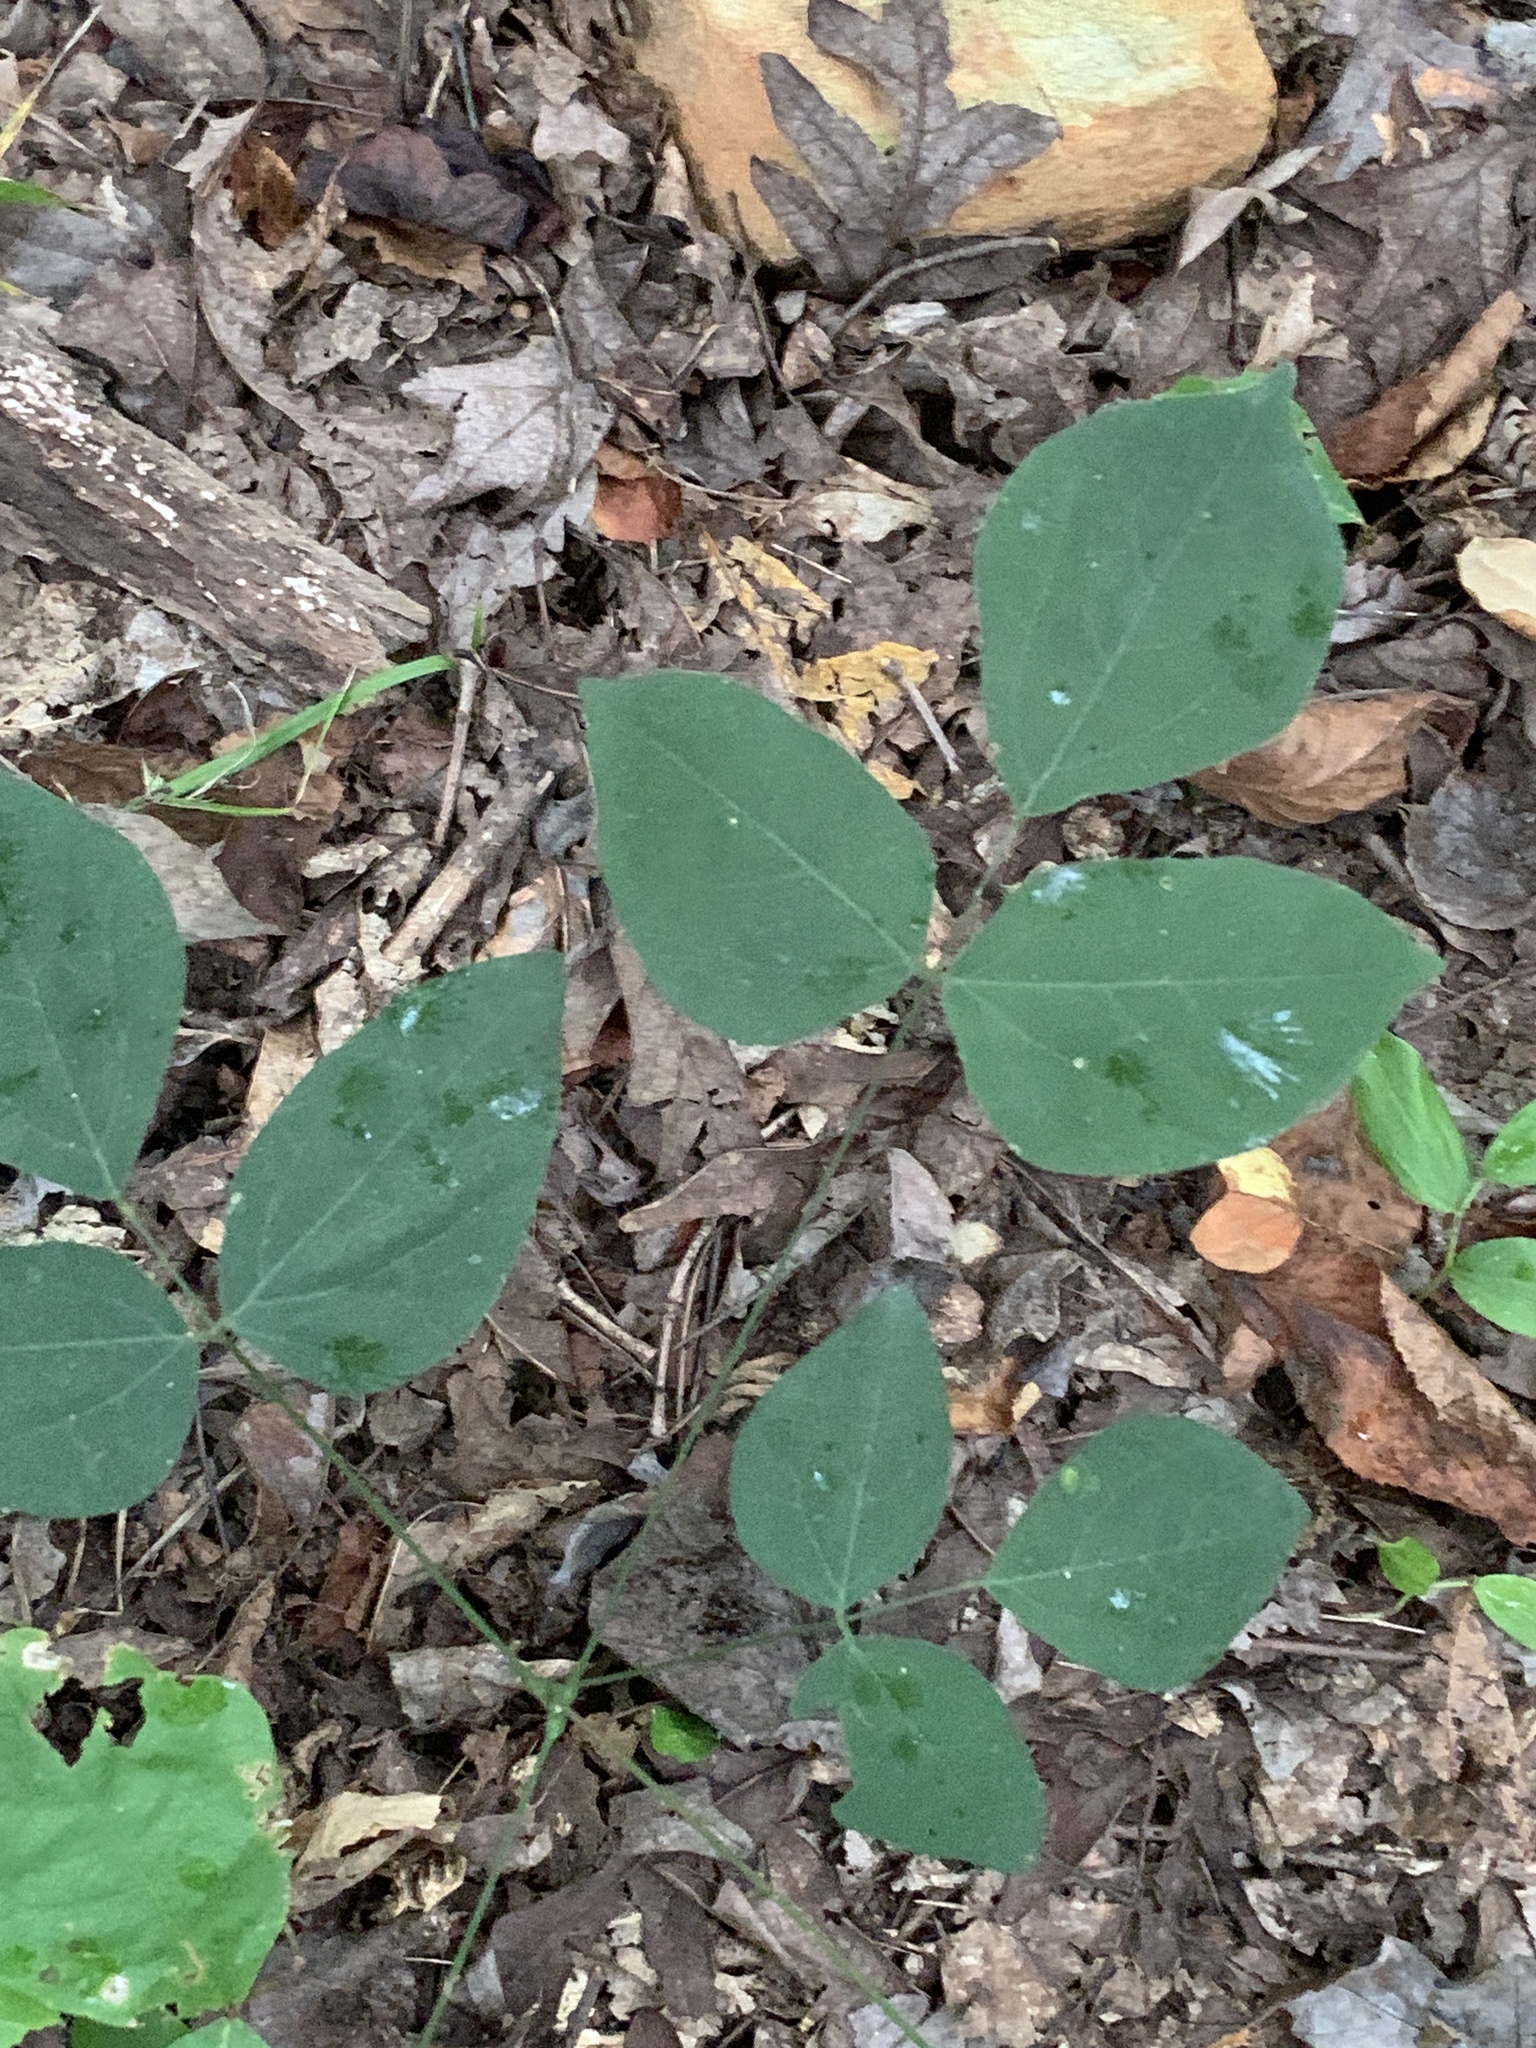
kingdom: Plantae
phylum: Tracheophyta
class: Magnoliopsida
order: Fabales
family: Fabaceae
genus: Hylodesmum
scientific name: Hylodesmum nudiflorum
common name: Bare-stemmed tick-trefoil
